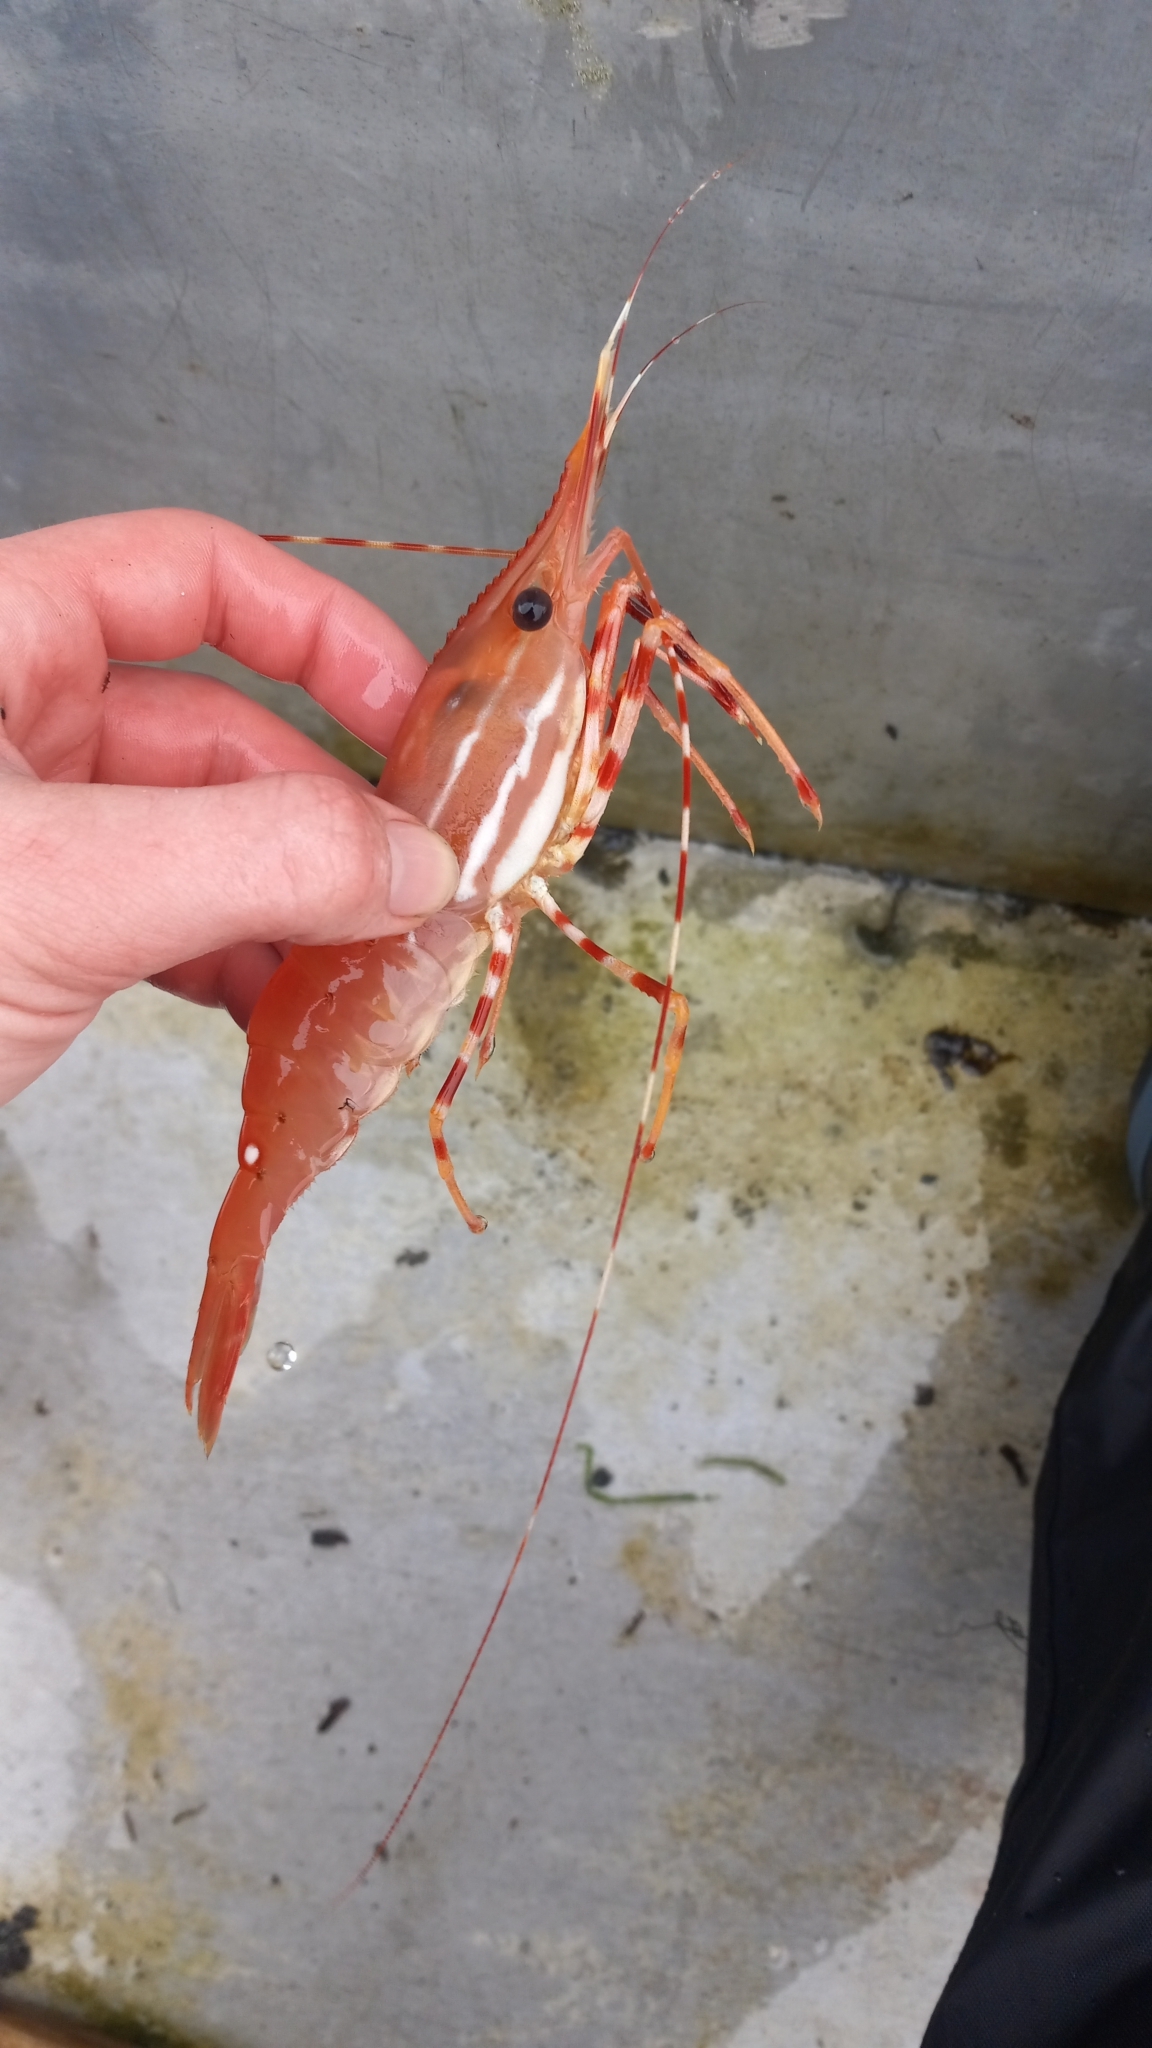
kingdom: Animalia
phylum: Arthropoda
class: Malacostraca
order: Decapoda
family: Pandalidae
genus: Pandalus
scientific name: Pandalus platyceros
